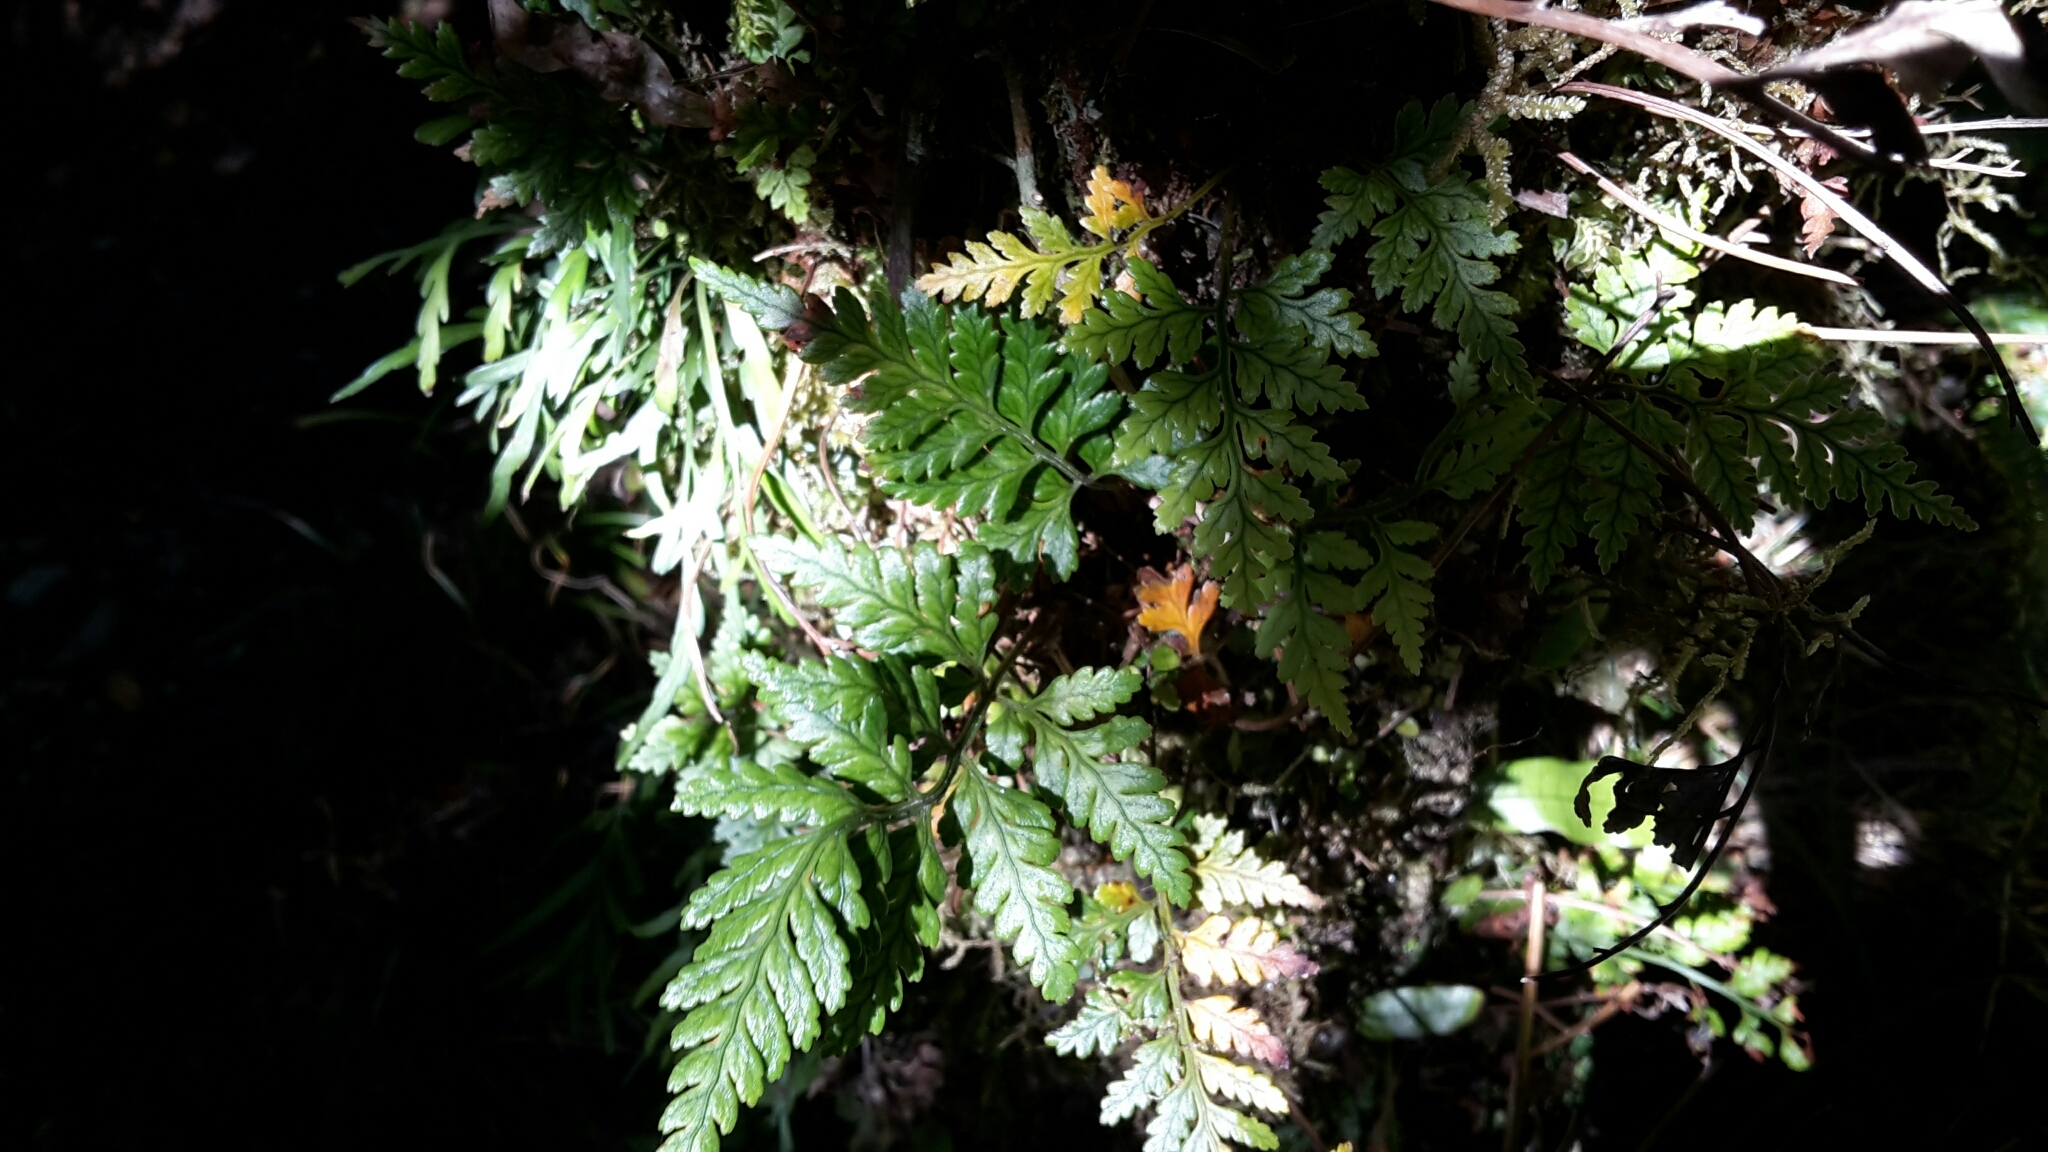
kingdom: Plantae
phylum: Tracheophyta
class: Polypodiopsida
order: Polypodiales
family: Dryopteridaceae
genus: Rumohra
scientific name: Rumohra adiantiformis
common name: Leather fern
